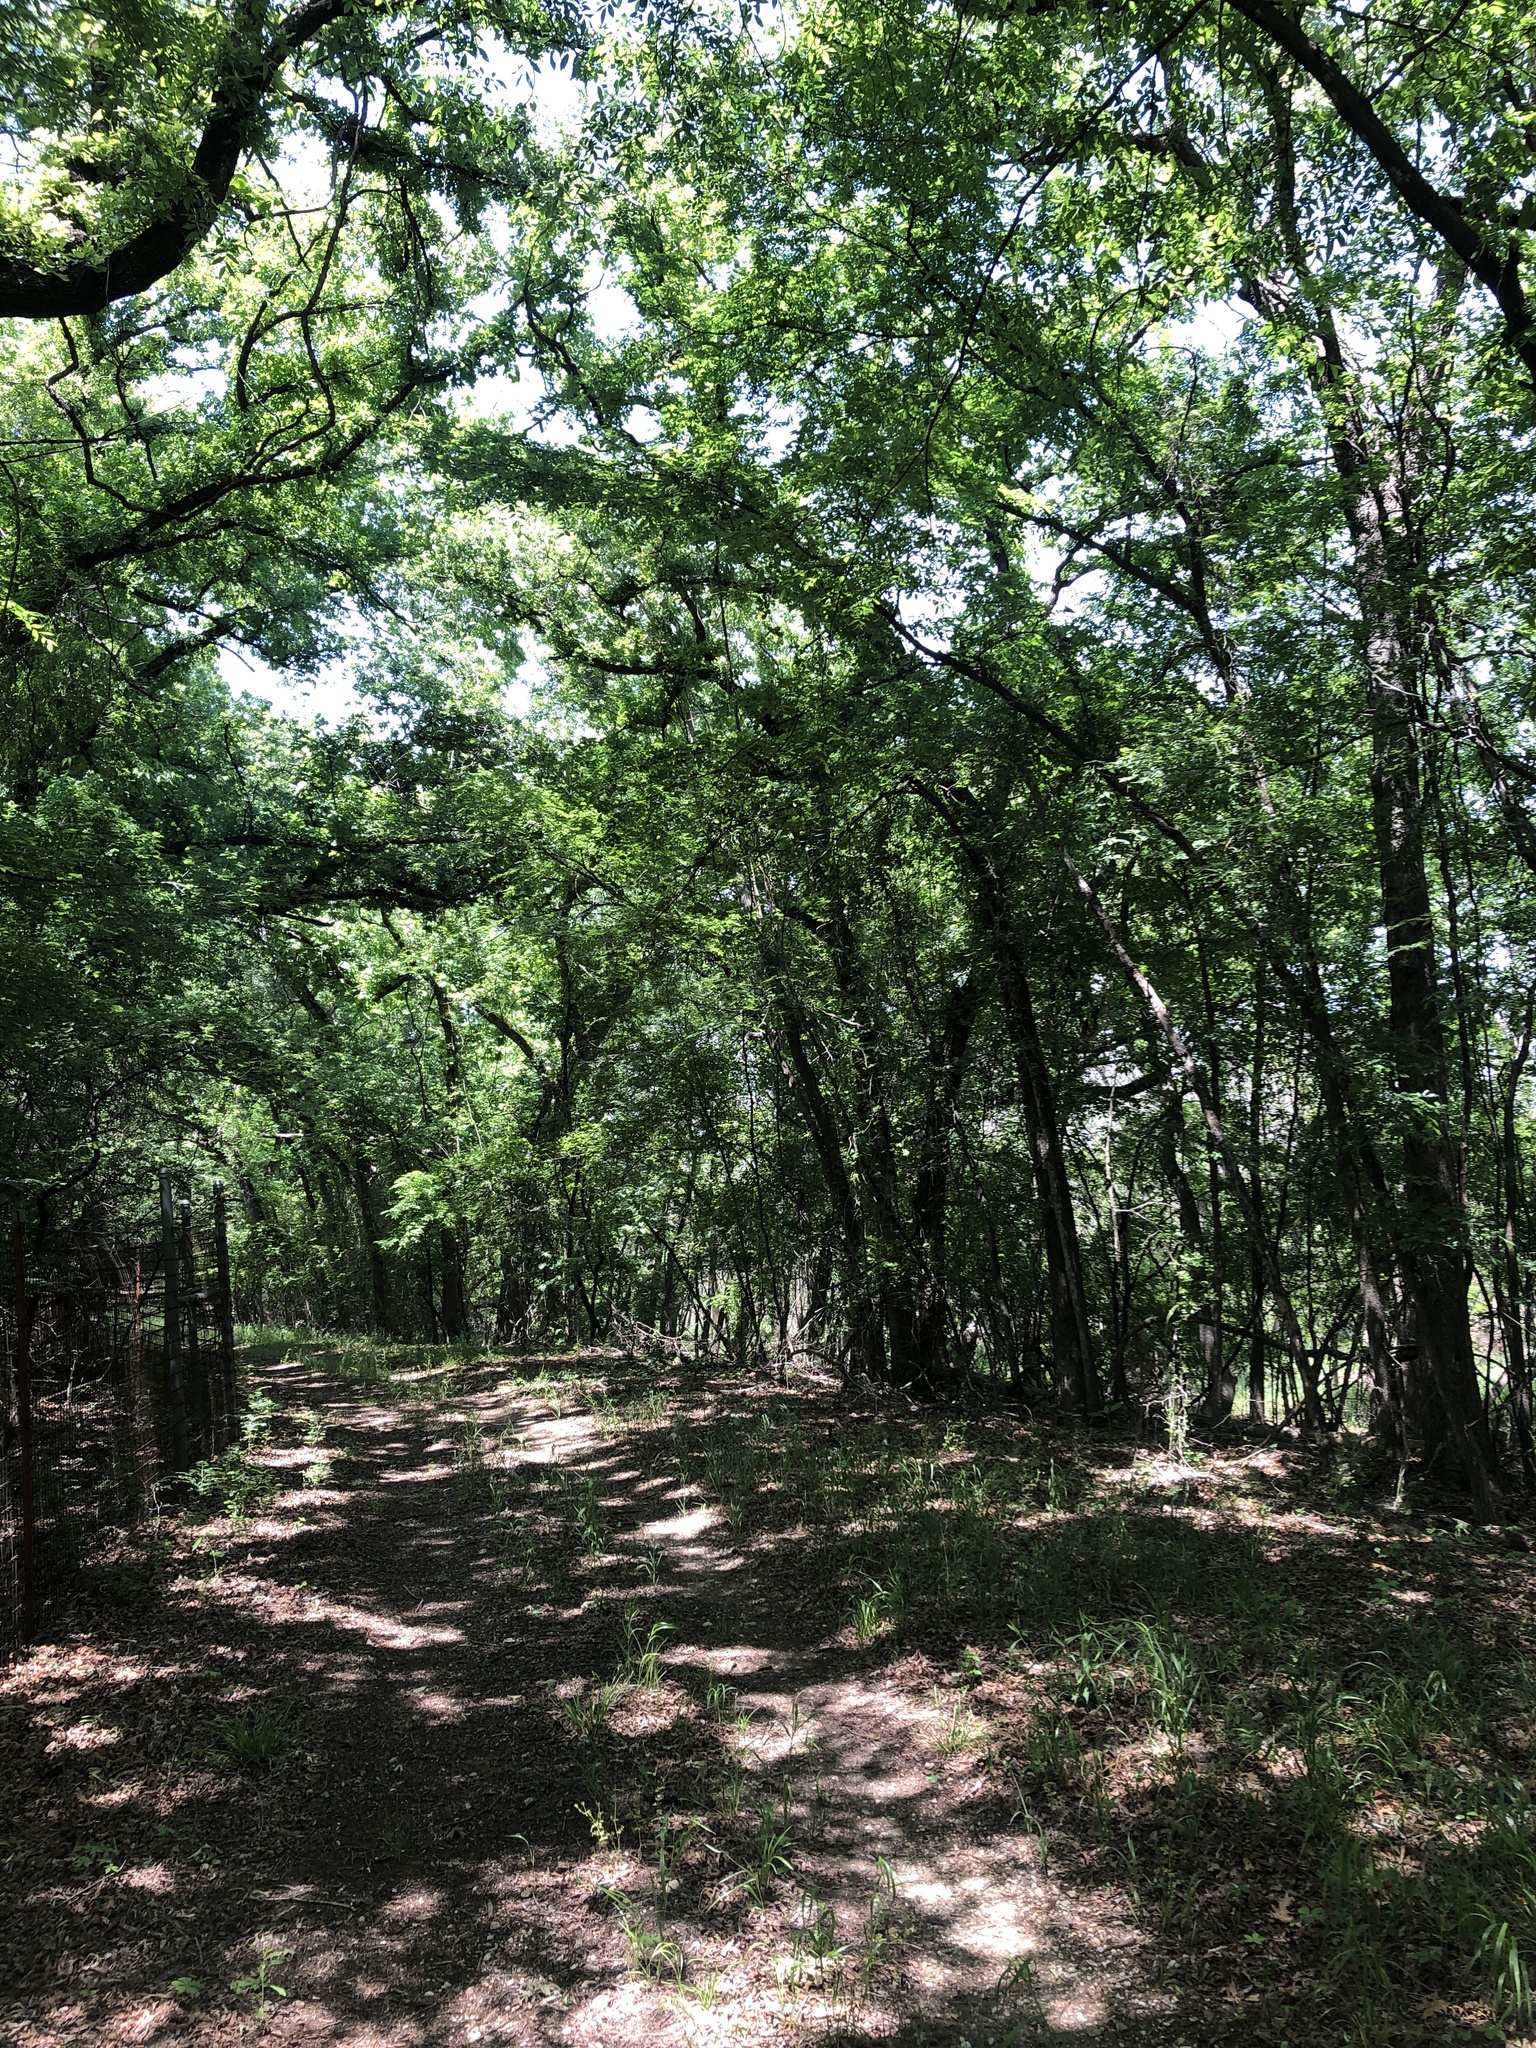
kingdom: Animalia
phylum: Chordata
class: Aves
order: Passeriformes
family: Cardinalidae
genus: Passerina
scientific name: Passerina ciris
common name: Painted bunting
